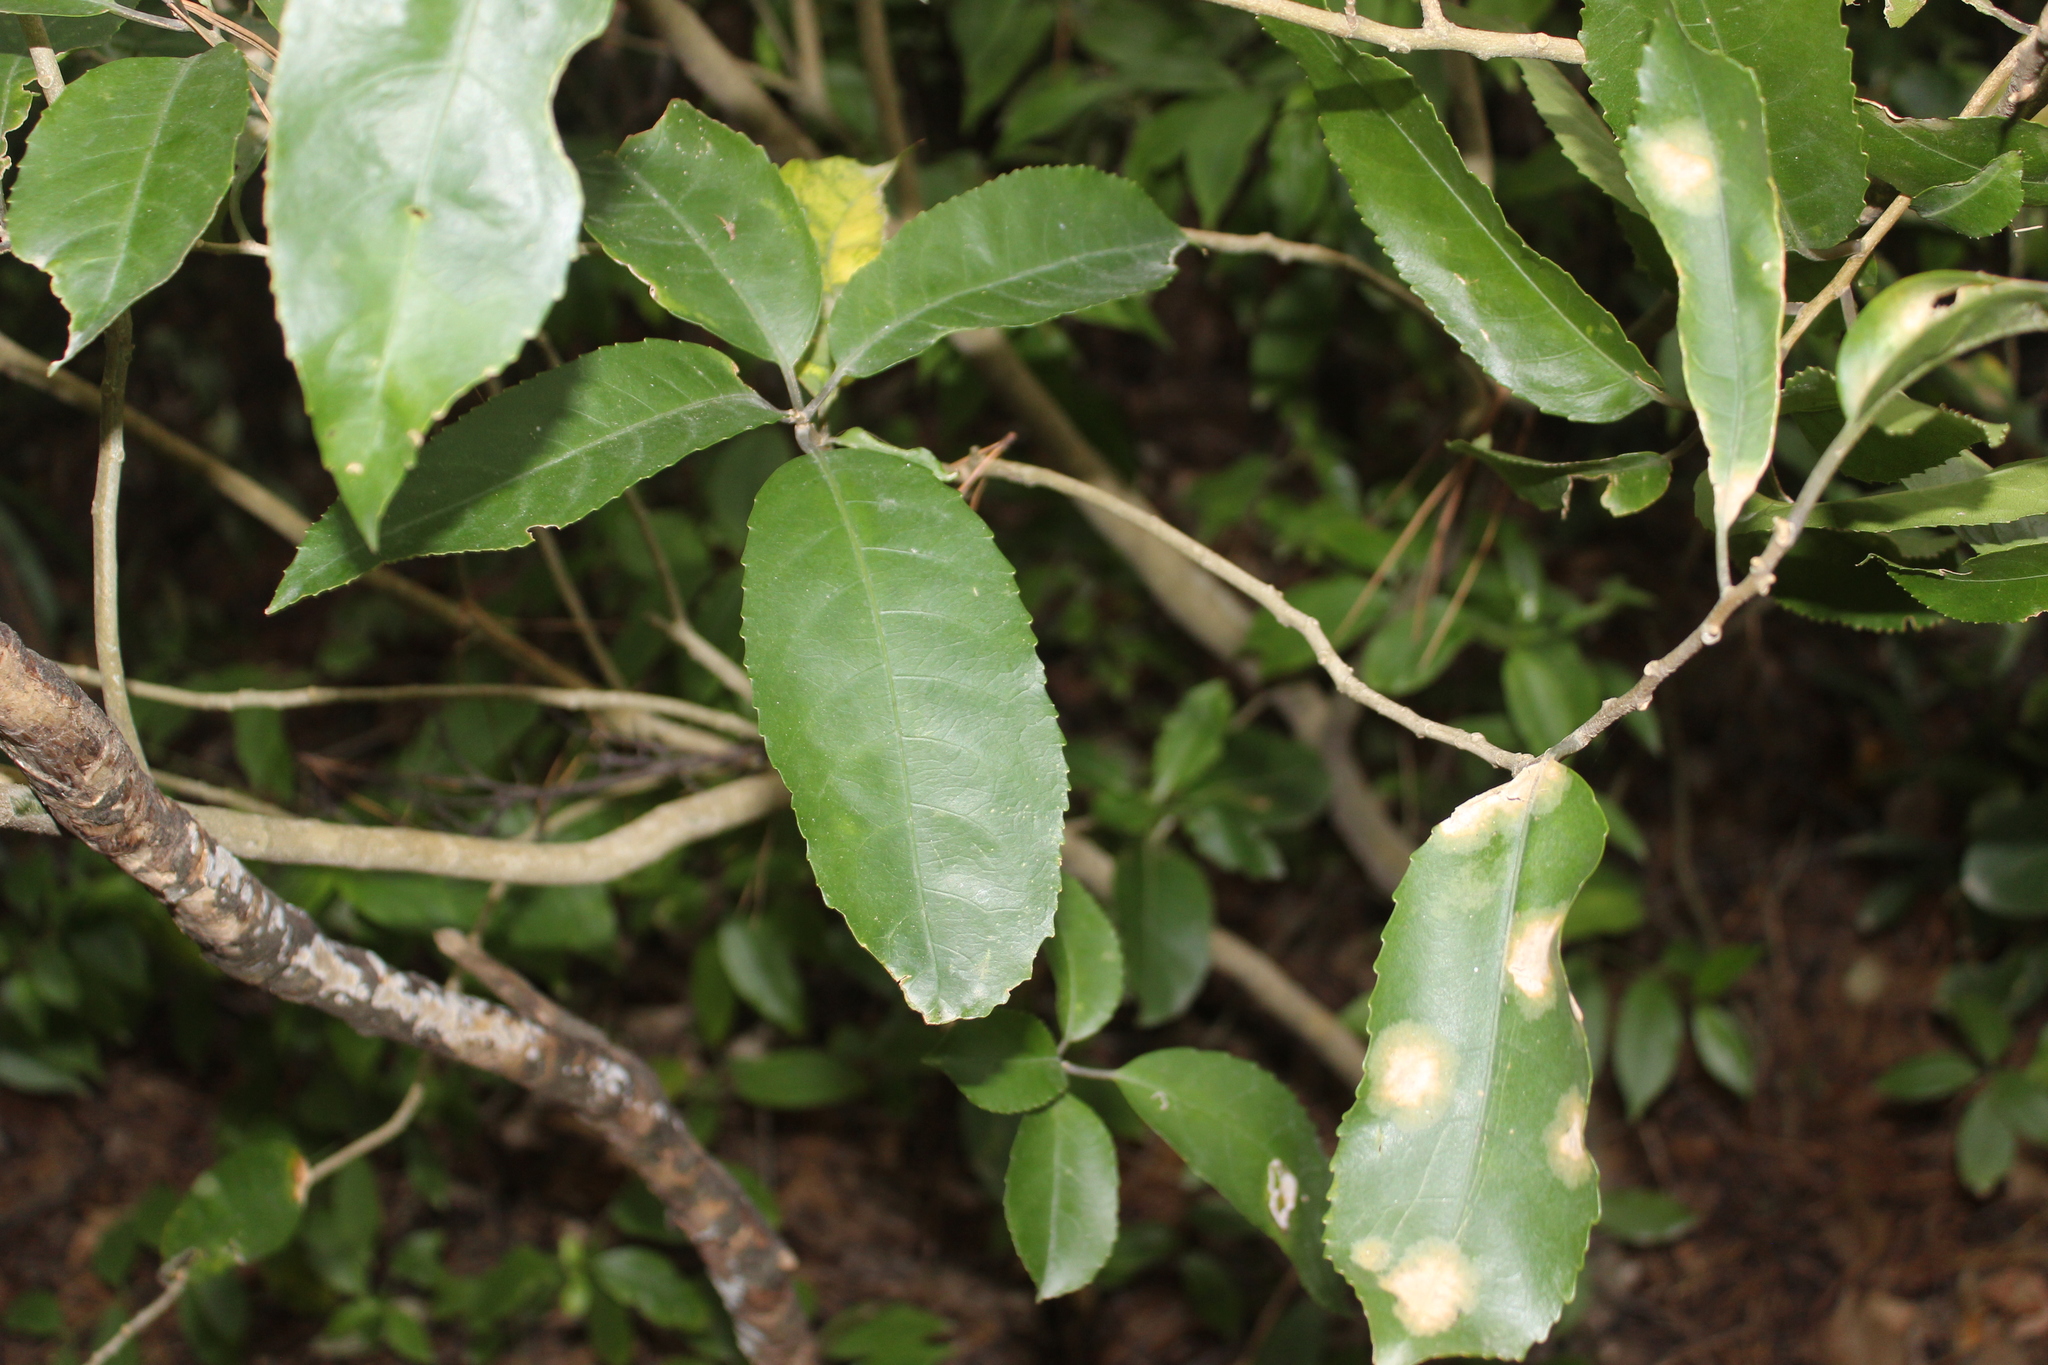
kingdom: Plantae
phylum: Tracheophyta
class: Magnoliopsida
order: Malpighiales
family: Violaceae
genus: Melicytus
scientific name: Melicytus ramiflorus
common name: Mahoe
